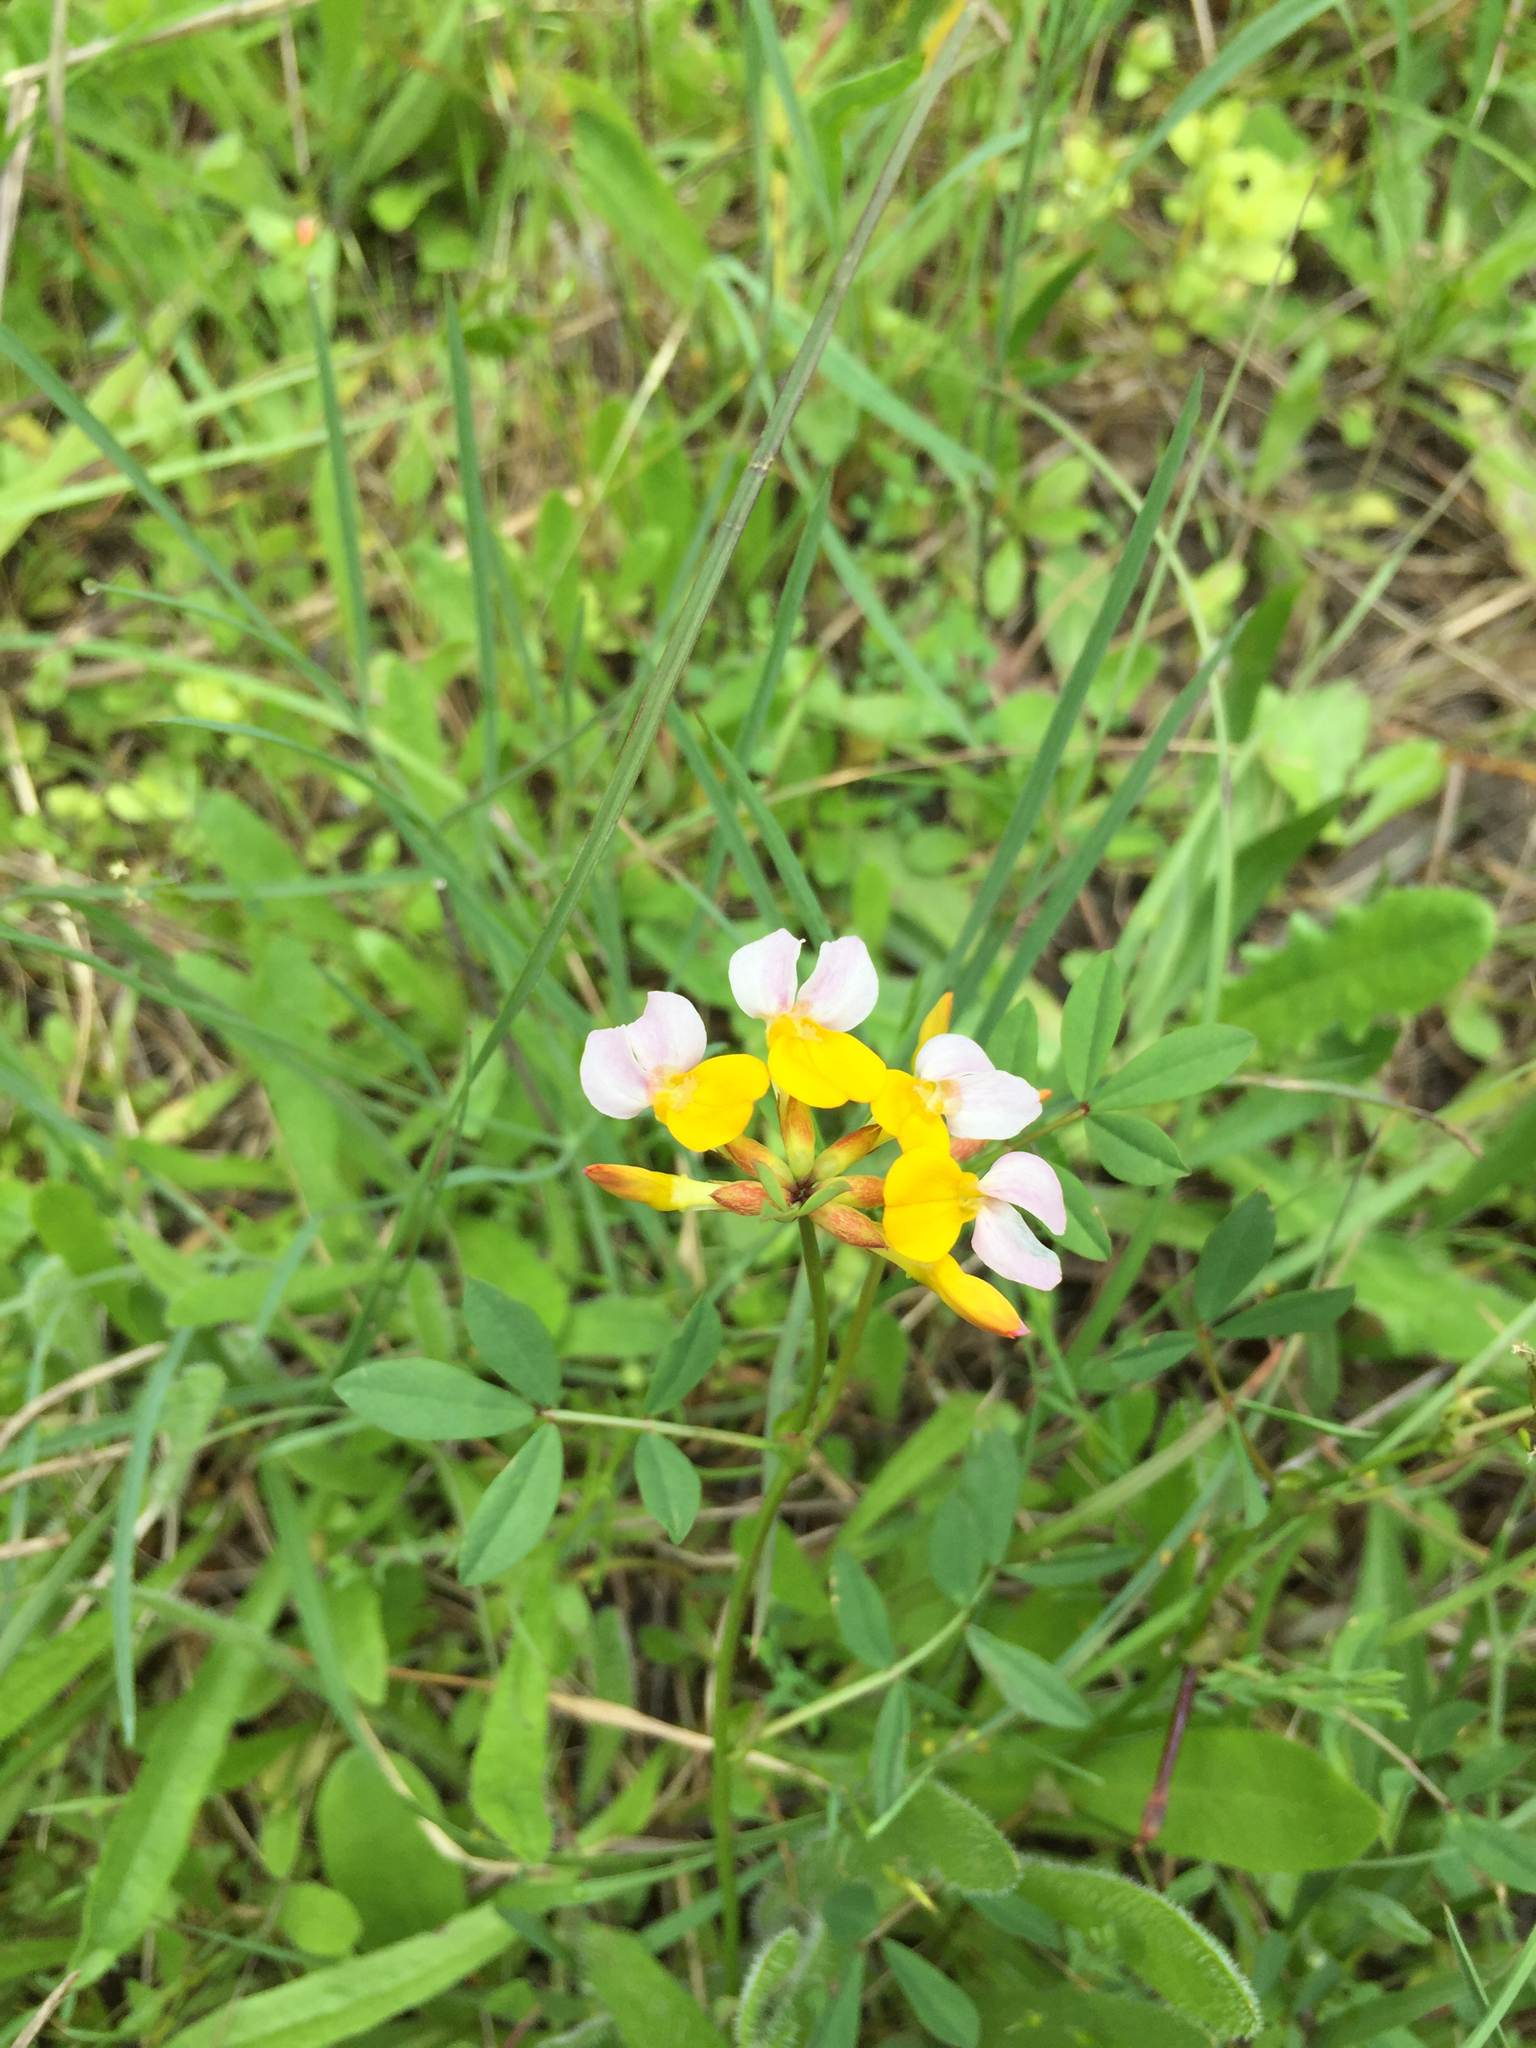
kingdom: Plantae
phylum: Tracheophyta
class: Magnoliopsida
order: Fabales
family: Fabaceae
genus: Hosackia
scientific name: Hosackia gracilis
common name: Seaside bird's-foot lotus
